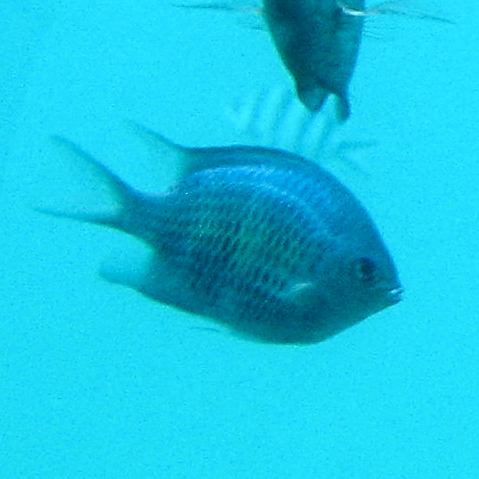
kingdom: Animalia
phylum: Chordata
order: Perciformes
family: Pomacentridae
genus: Amblyglyphidodon
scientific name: Amblyglyphidodon curacao
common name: Staghorn damsel
